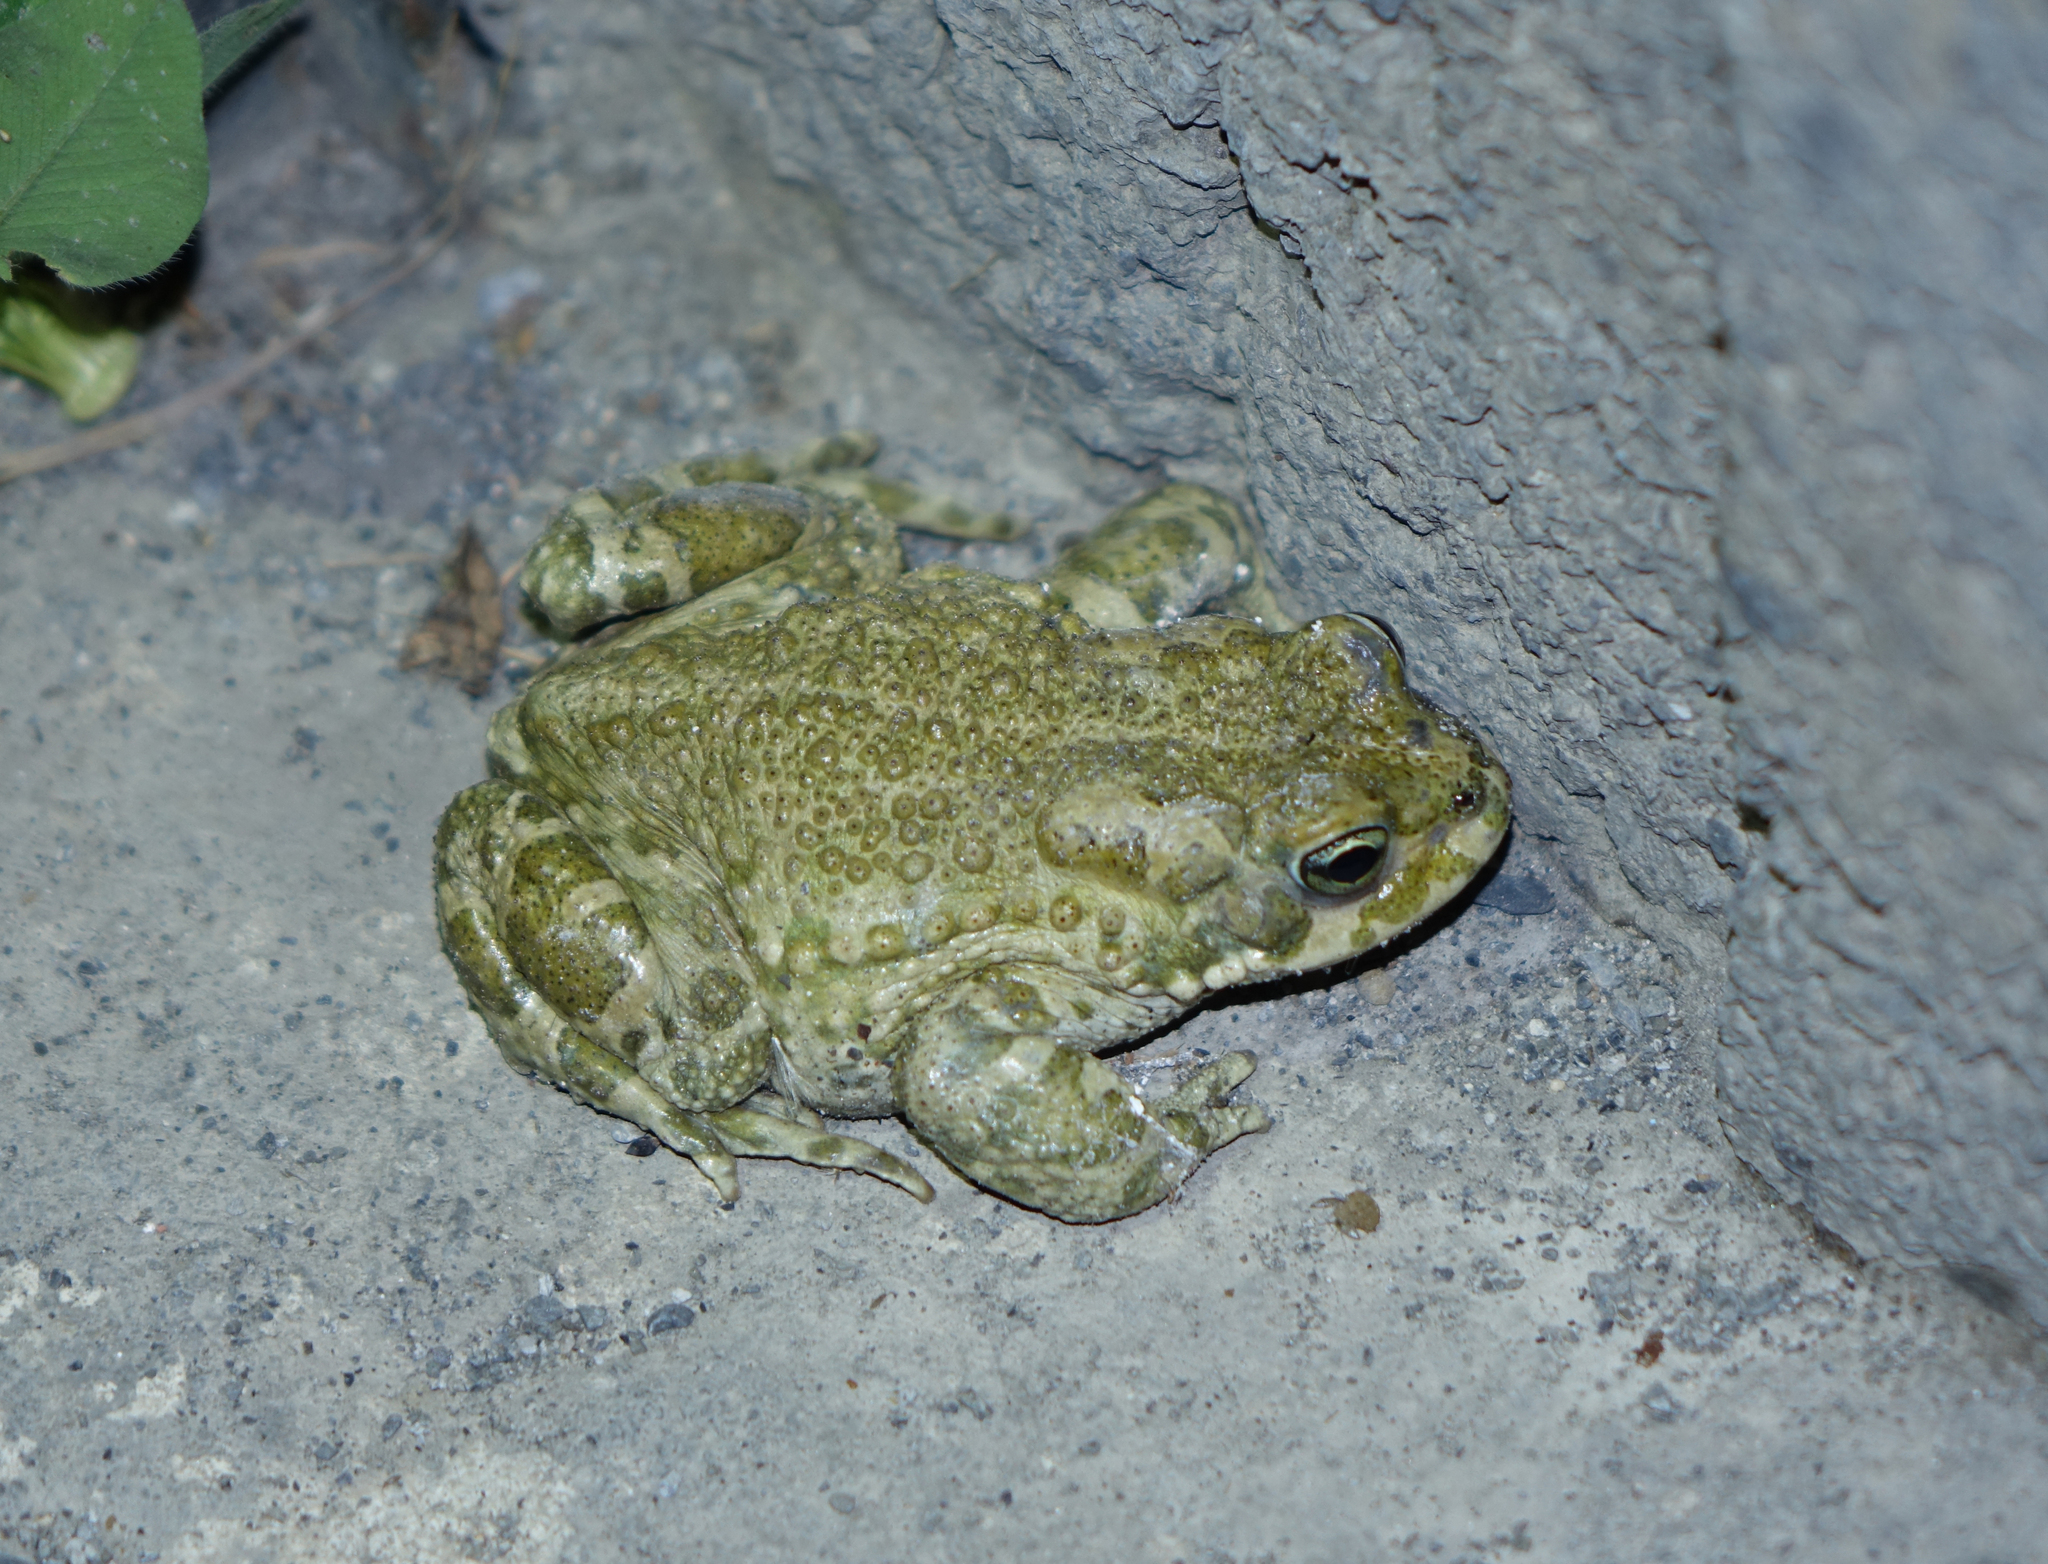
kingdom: Animalia
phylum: Chordata
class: Amphibia
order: Anura
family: Bufonidae
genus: Bufotes
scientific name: Bufotes viridis
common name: European green toad
